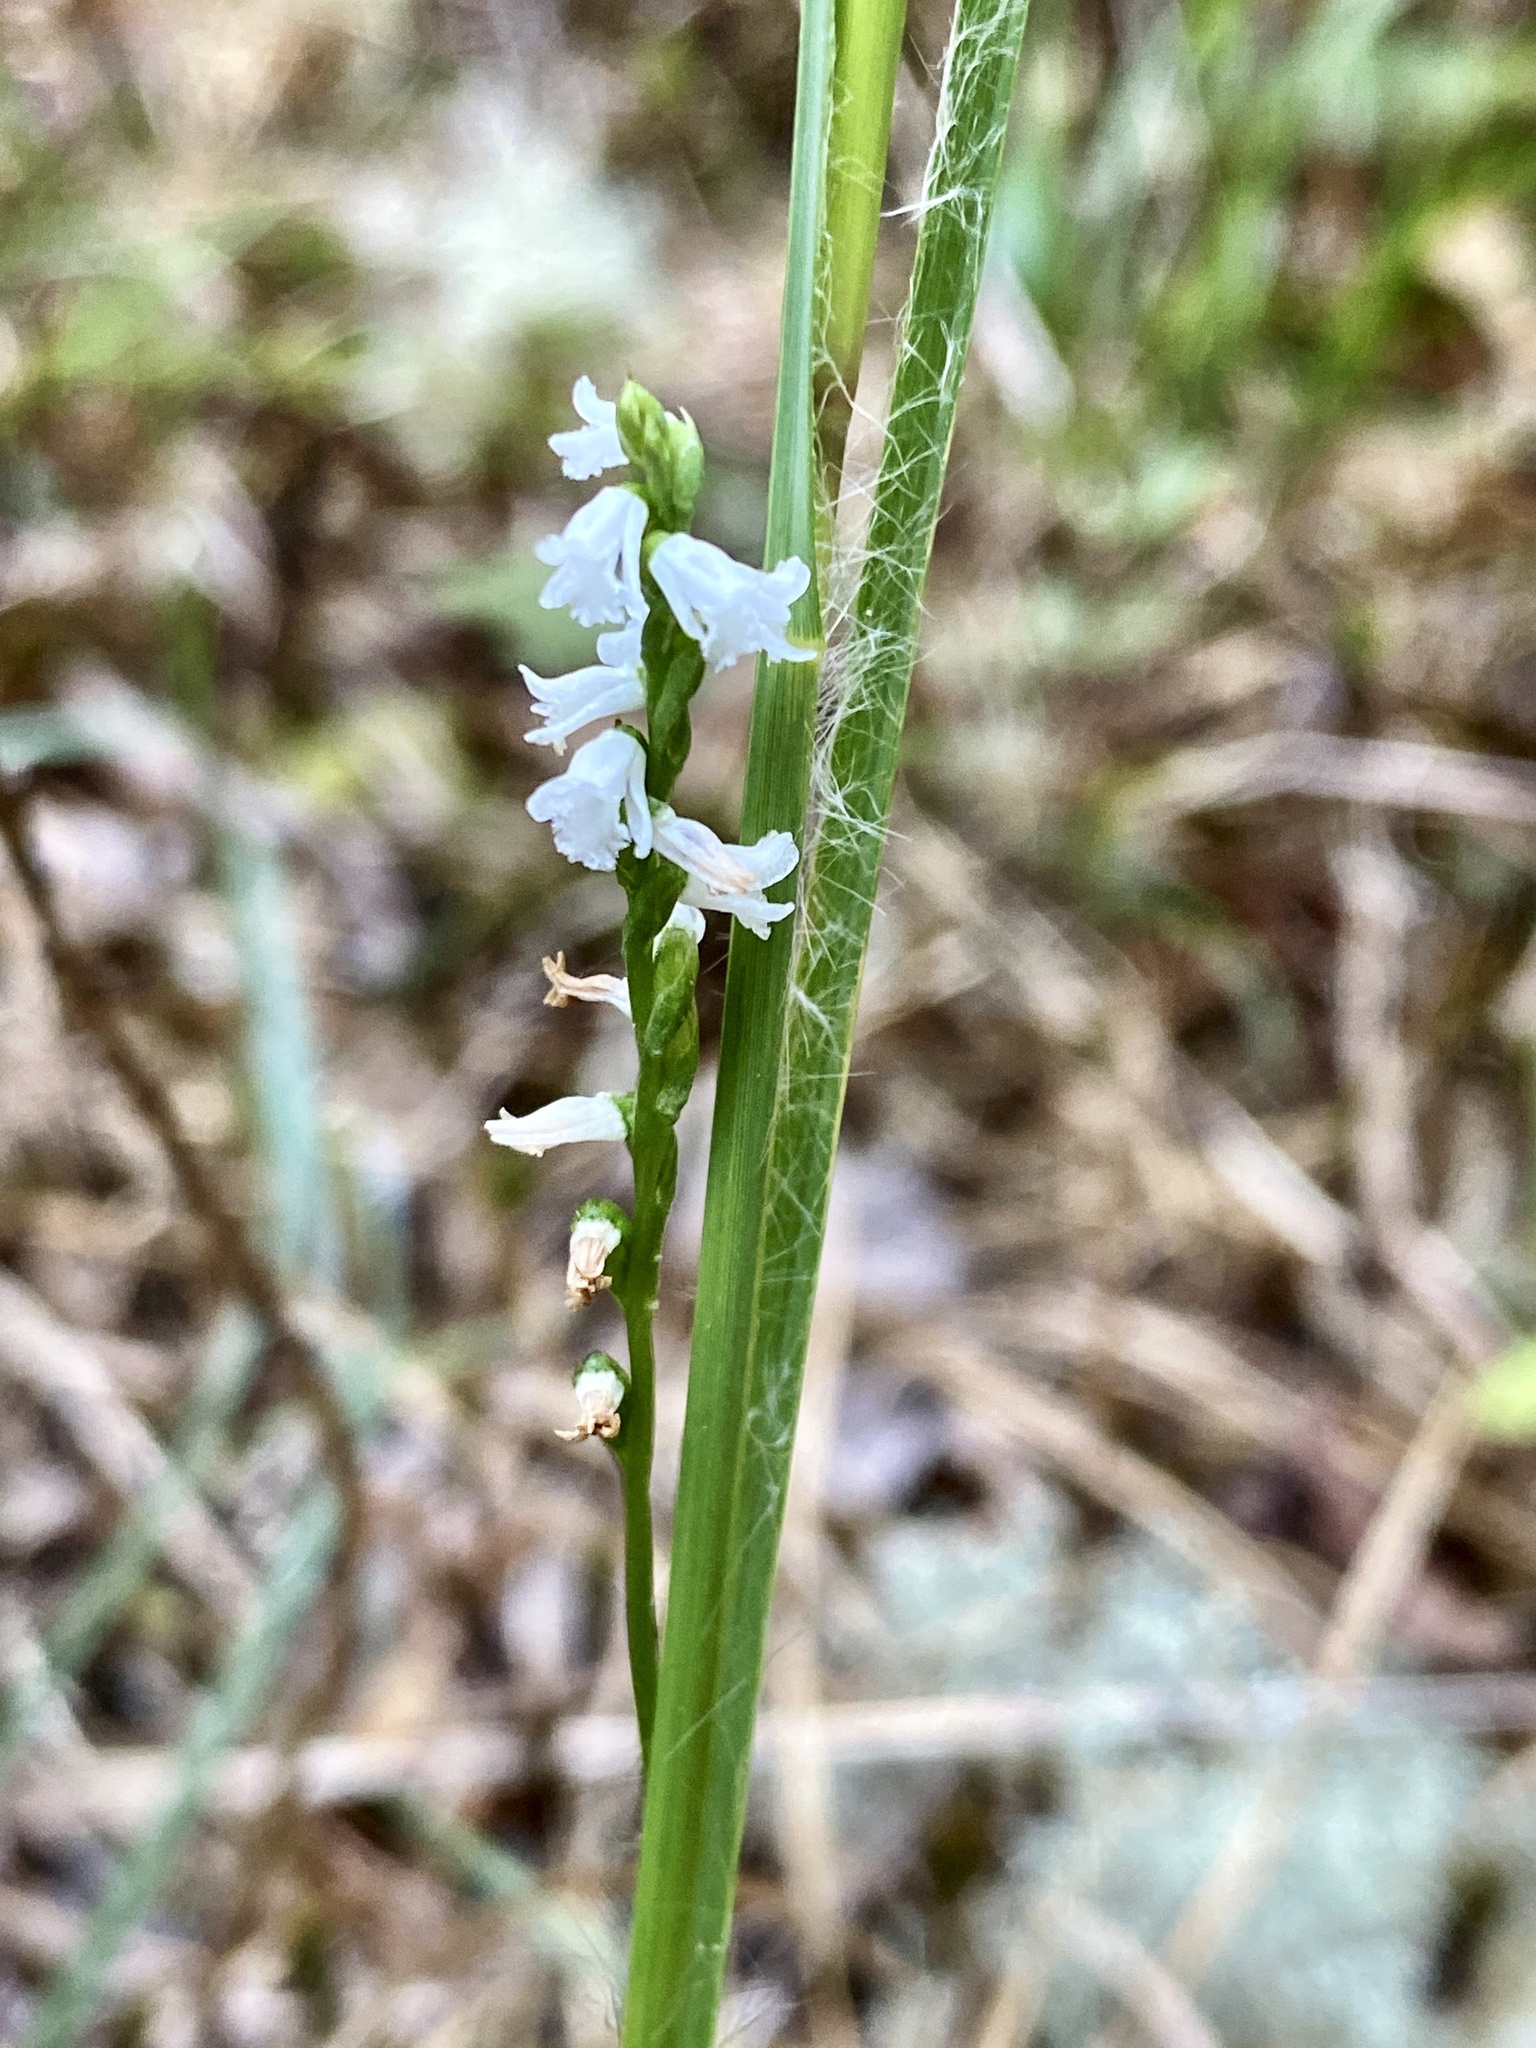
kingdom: Plantae
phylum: Tracheophyta
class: Liliopsida
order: Asparagales
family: Orchidaceae
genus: Spiranthes
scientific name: Spiranthes tuberosa
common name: Little ladies'-tresses
